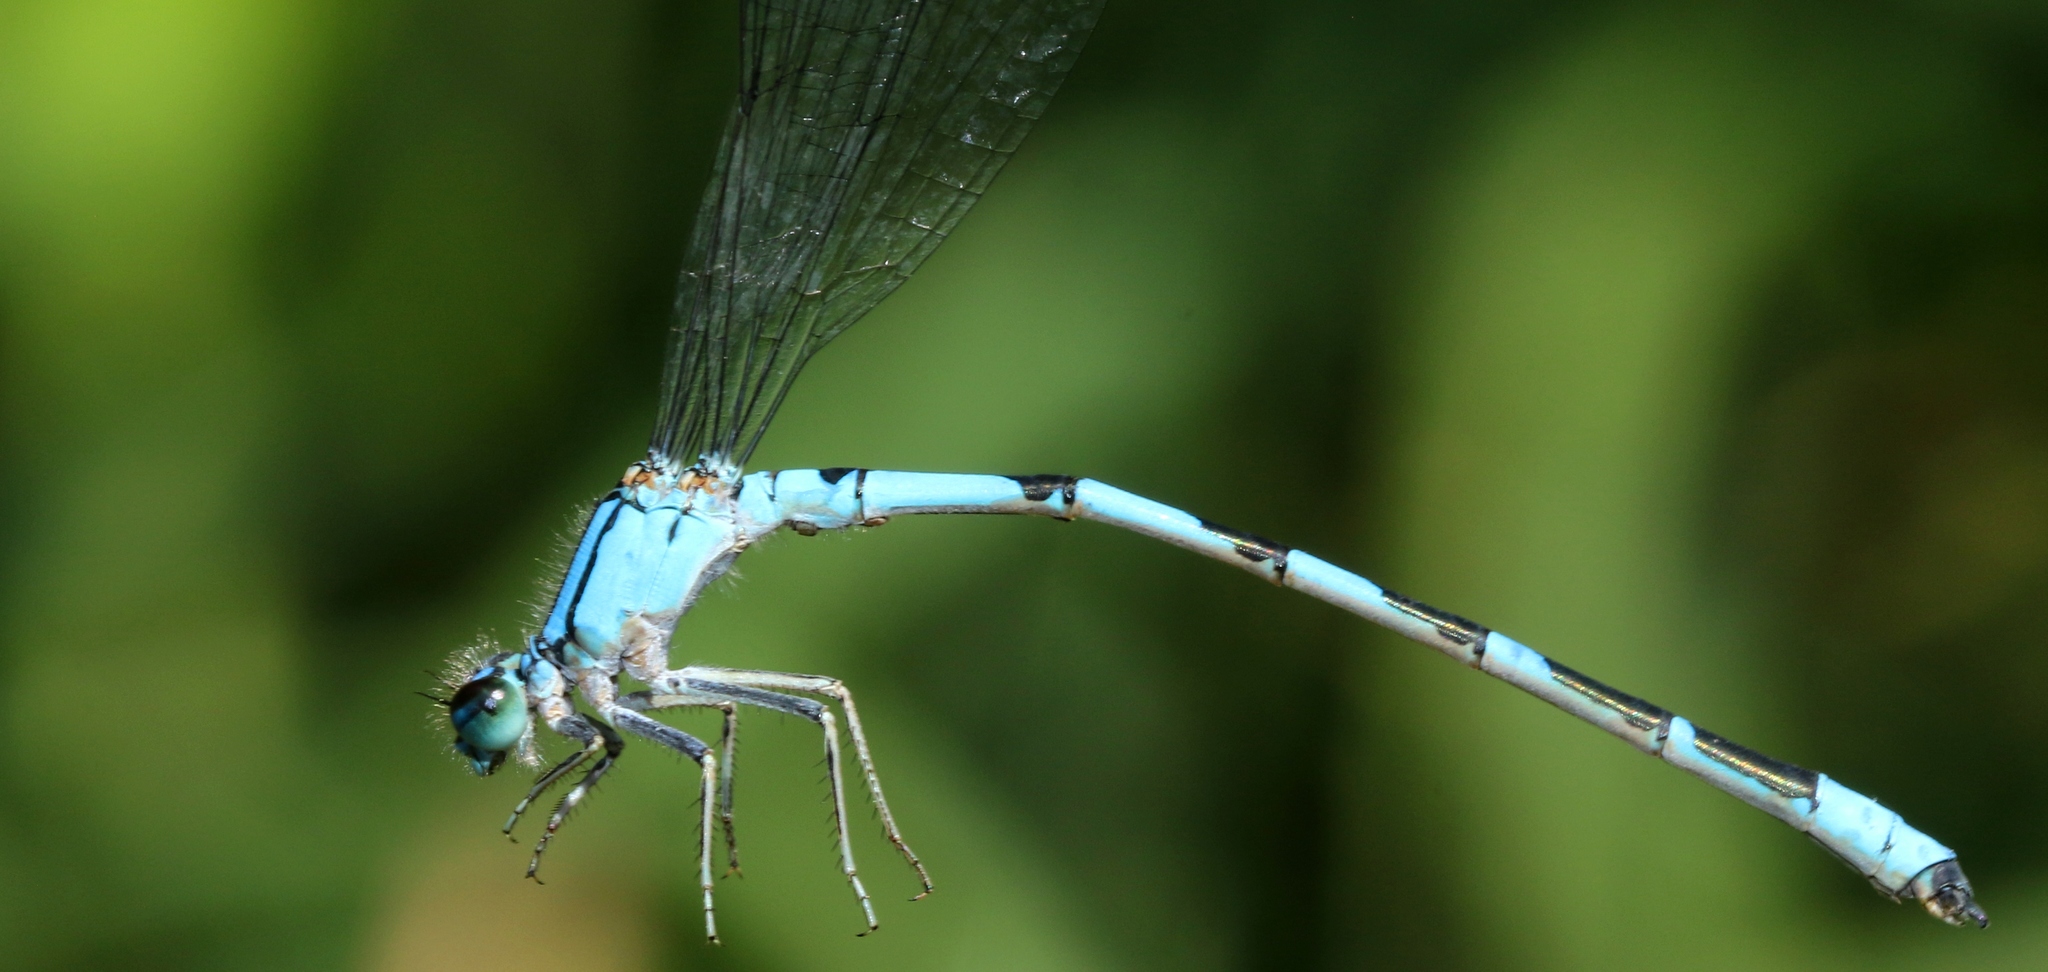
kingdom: Animalia
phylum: Arthropoda
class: Insecta
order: Odonata
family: Coenagrionidae
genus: Enallagma
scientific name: Enallagma anna
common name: River bluet
